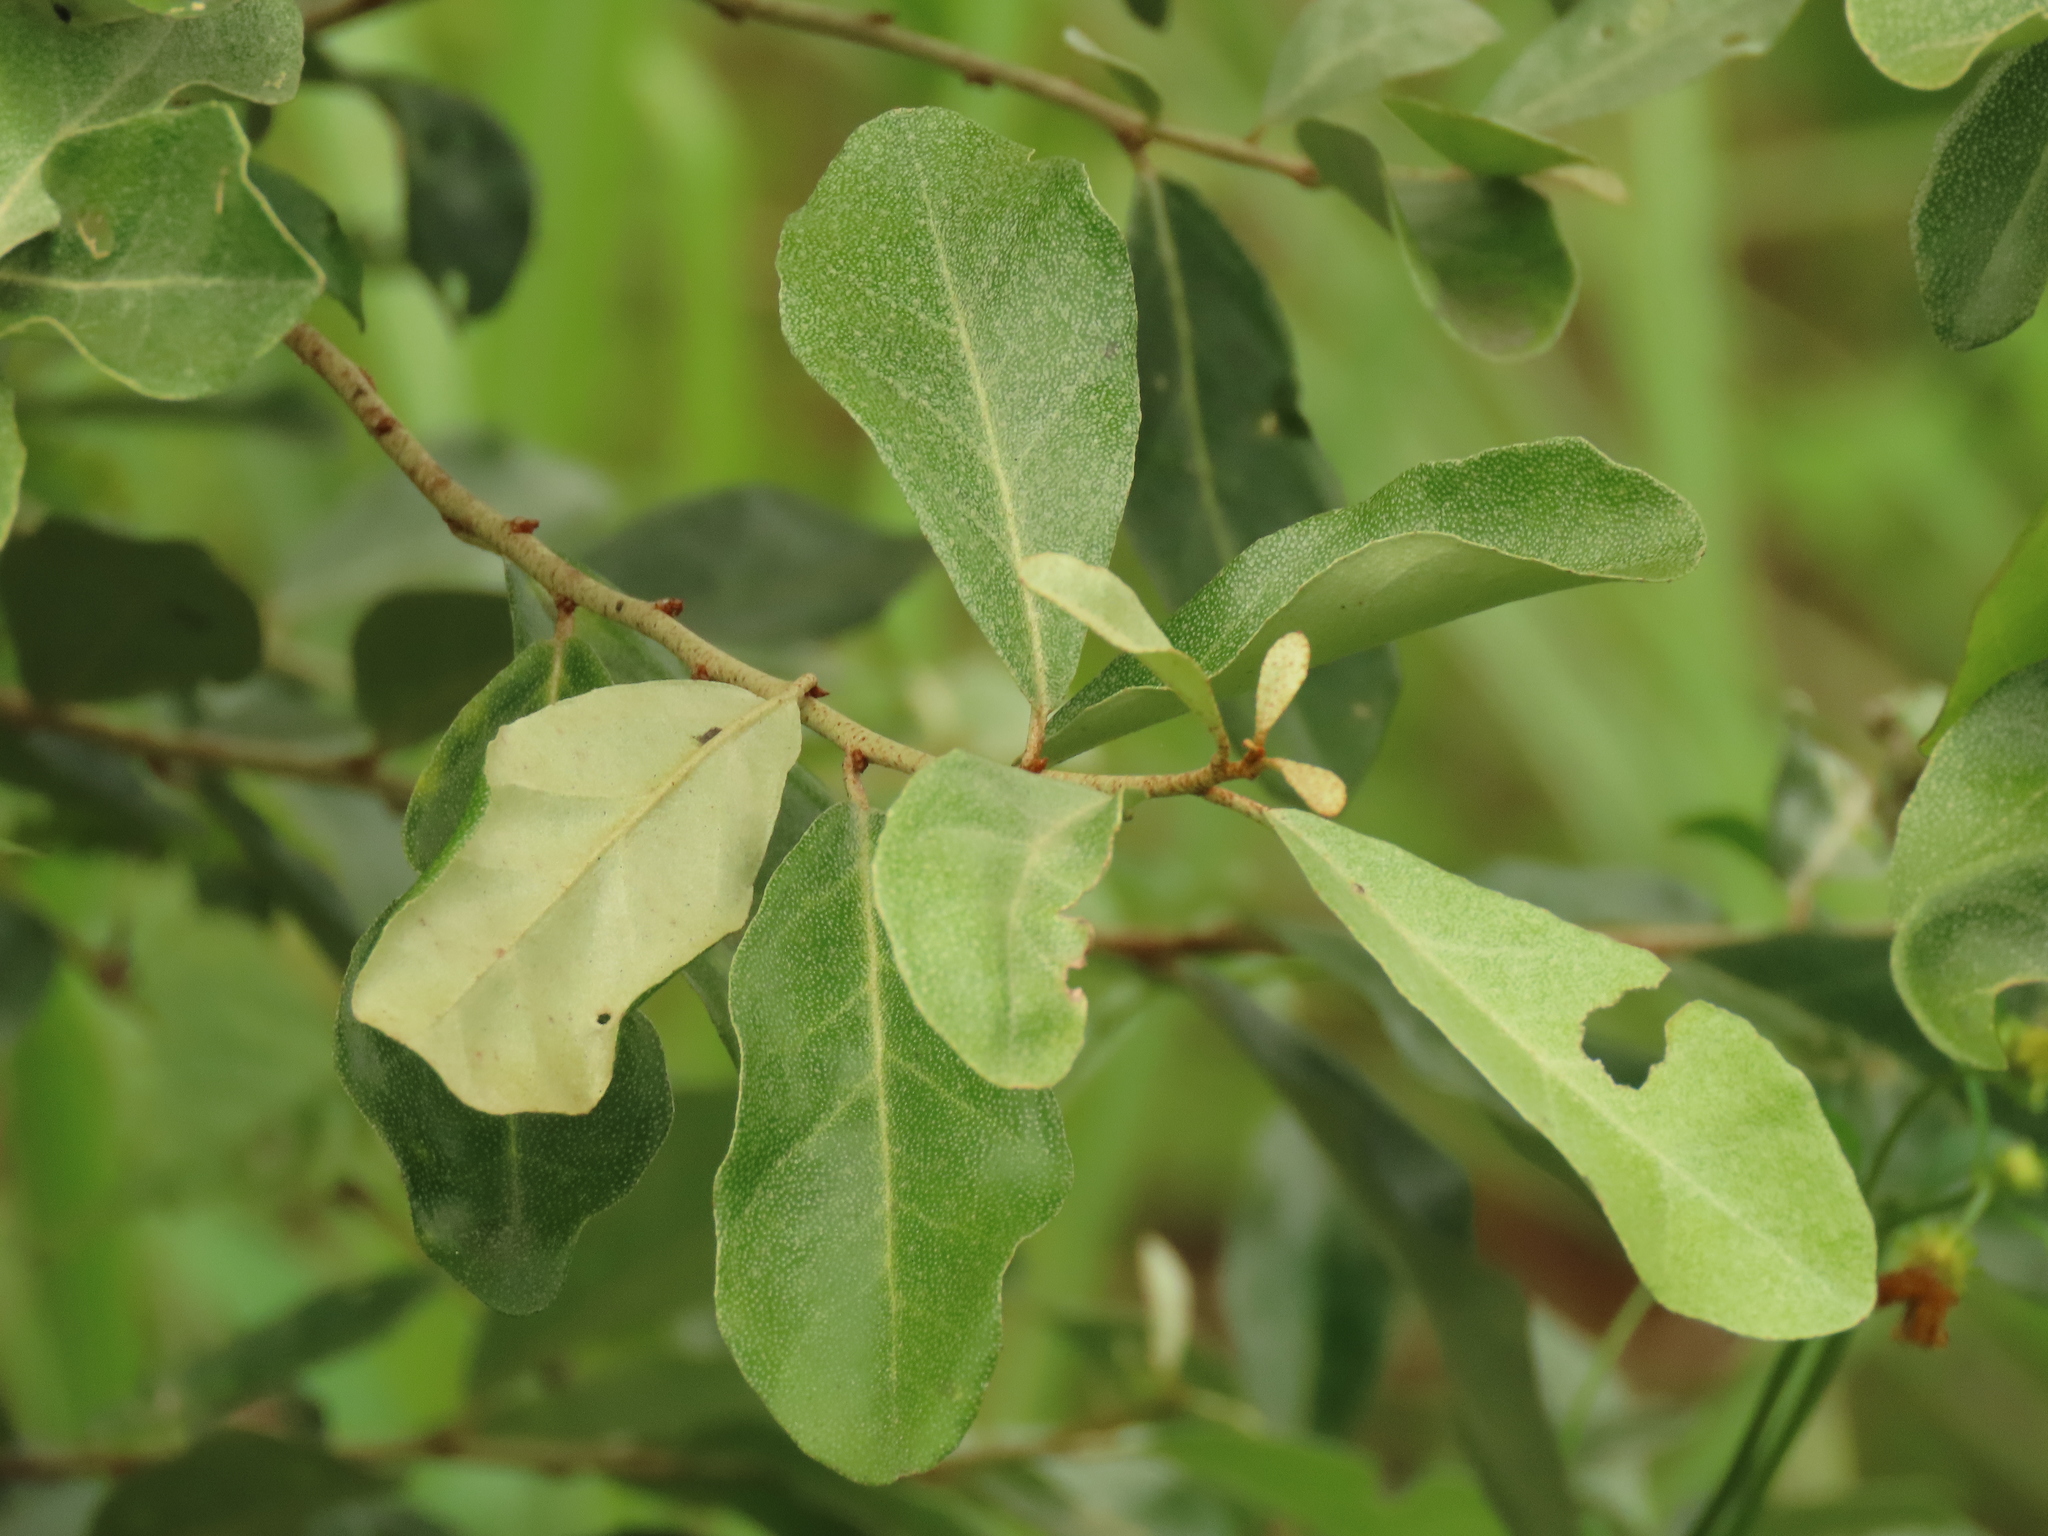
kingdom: Plantae
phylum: Tracheophyta
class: Magnoliopsida
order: Rosales
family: Elaeagnaceae
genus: Elaeagnus
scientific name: Elaeagnus oldhamii
